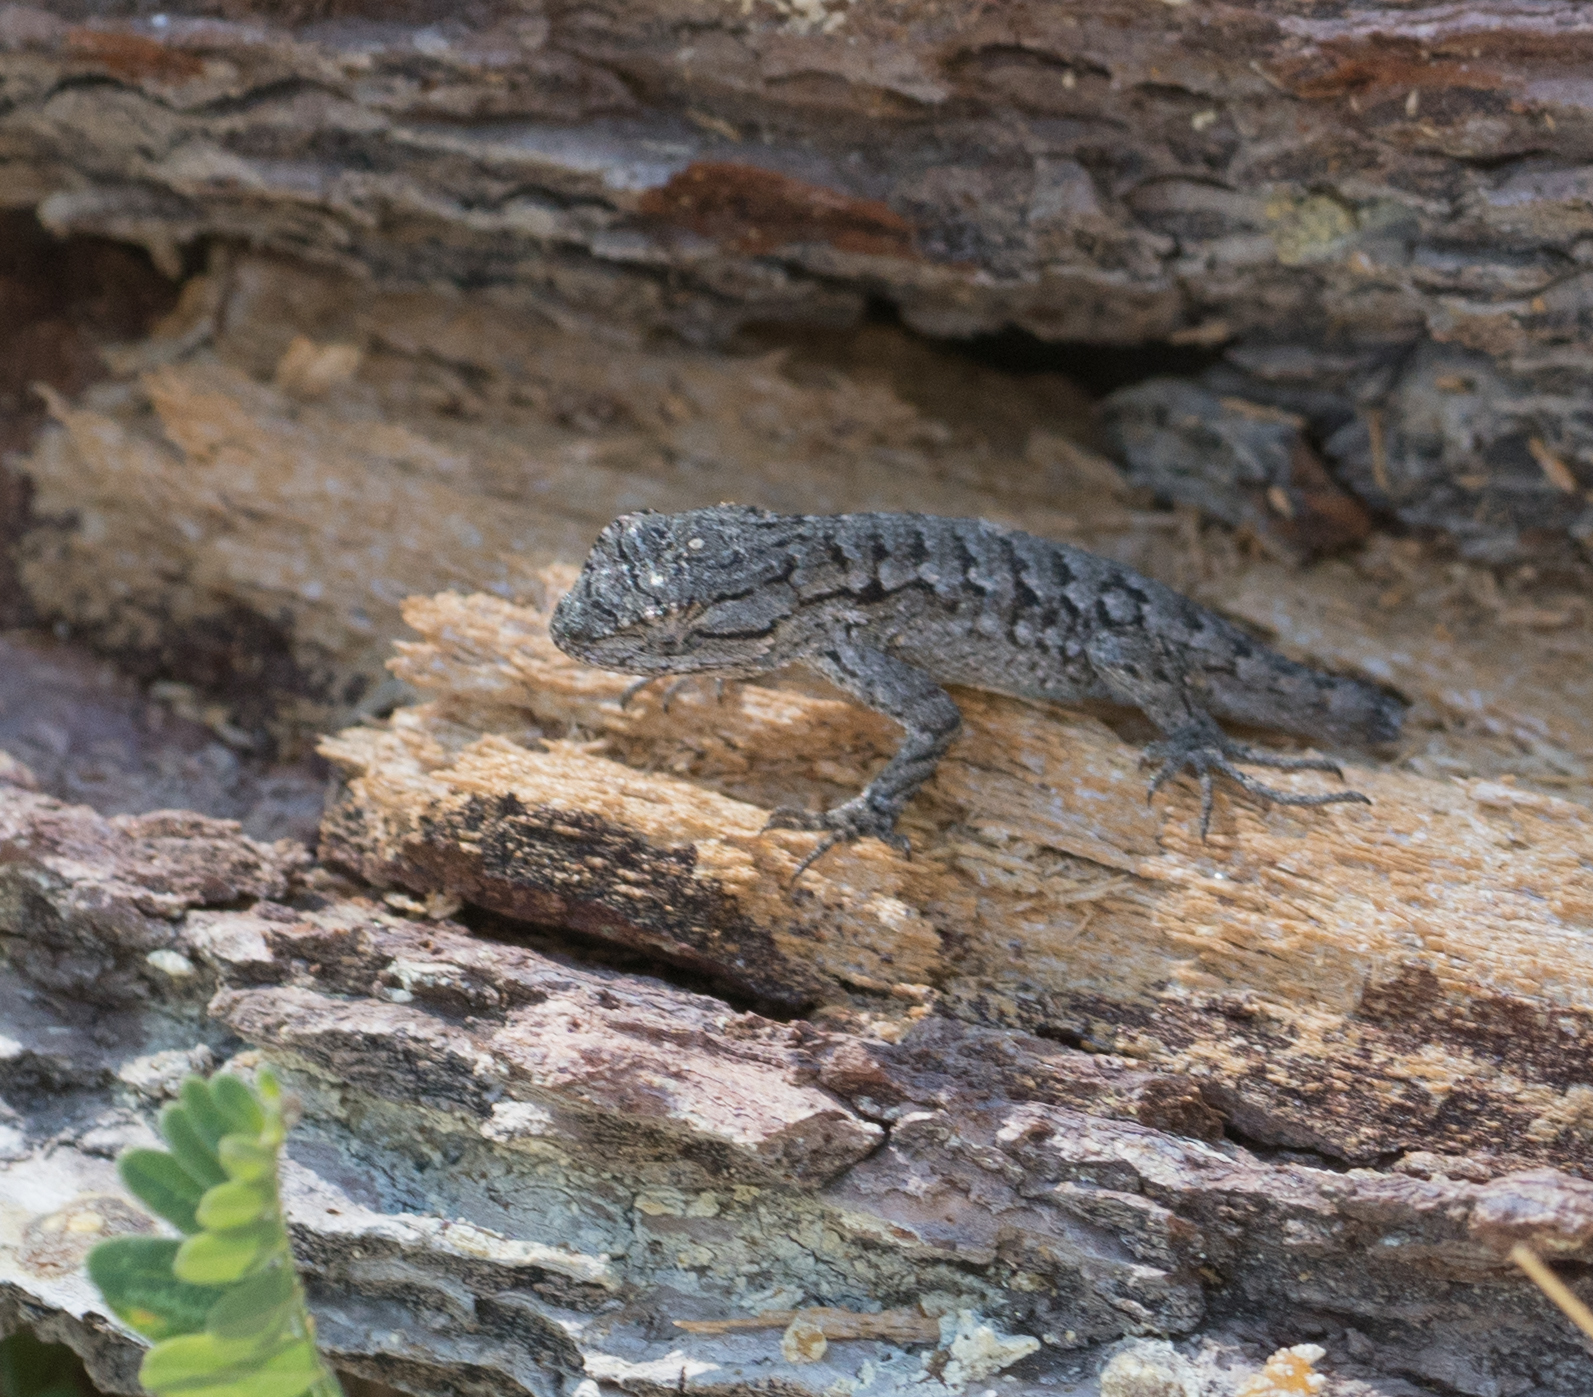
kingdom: Animalia
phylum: Chordata
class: Squamata
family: Phrynosomatidae
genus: Sceloporus
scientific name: Sceloporus occidentalis
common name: Western fence lizard
